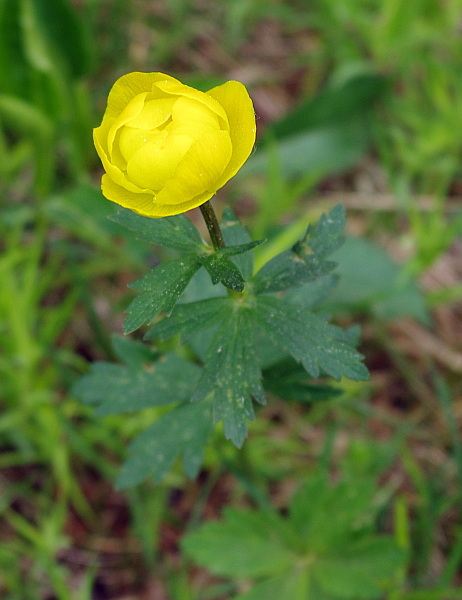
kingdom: Plantae
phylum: Tracheophyta
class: Magnoliopsida
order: Ranunculales
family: Ranunculaceae
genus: Trollius
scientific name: Trollius europaeus
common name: European globeflower
